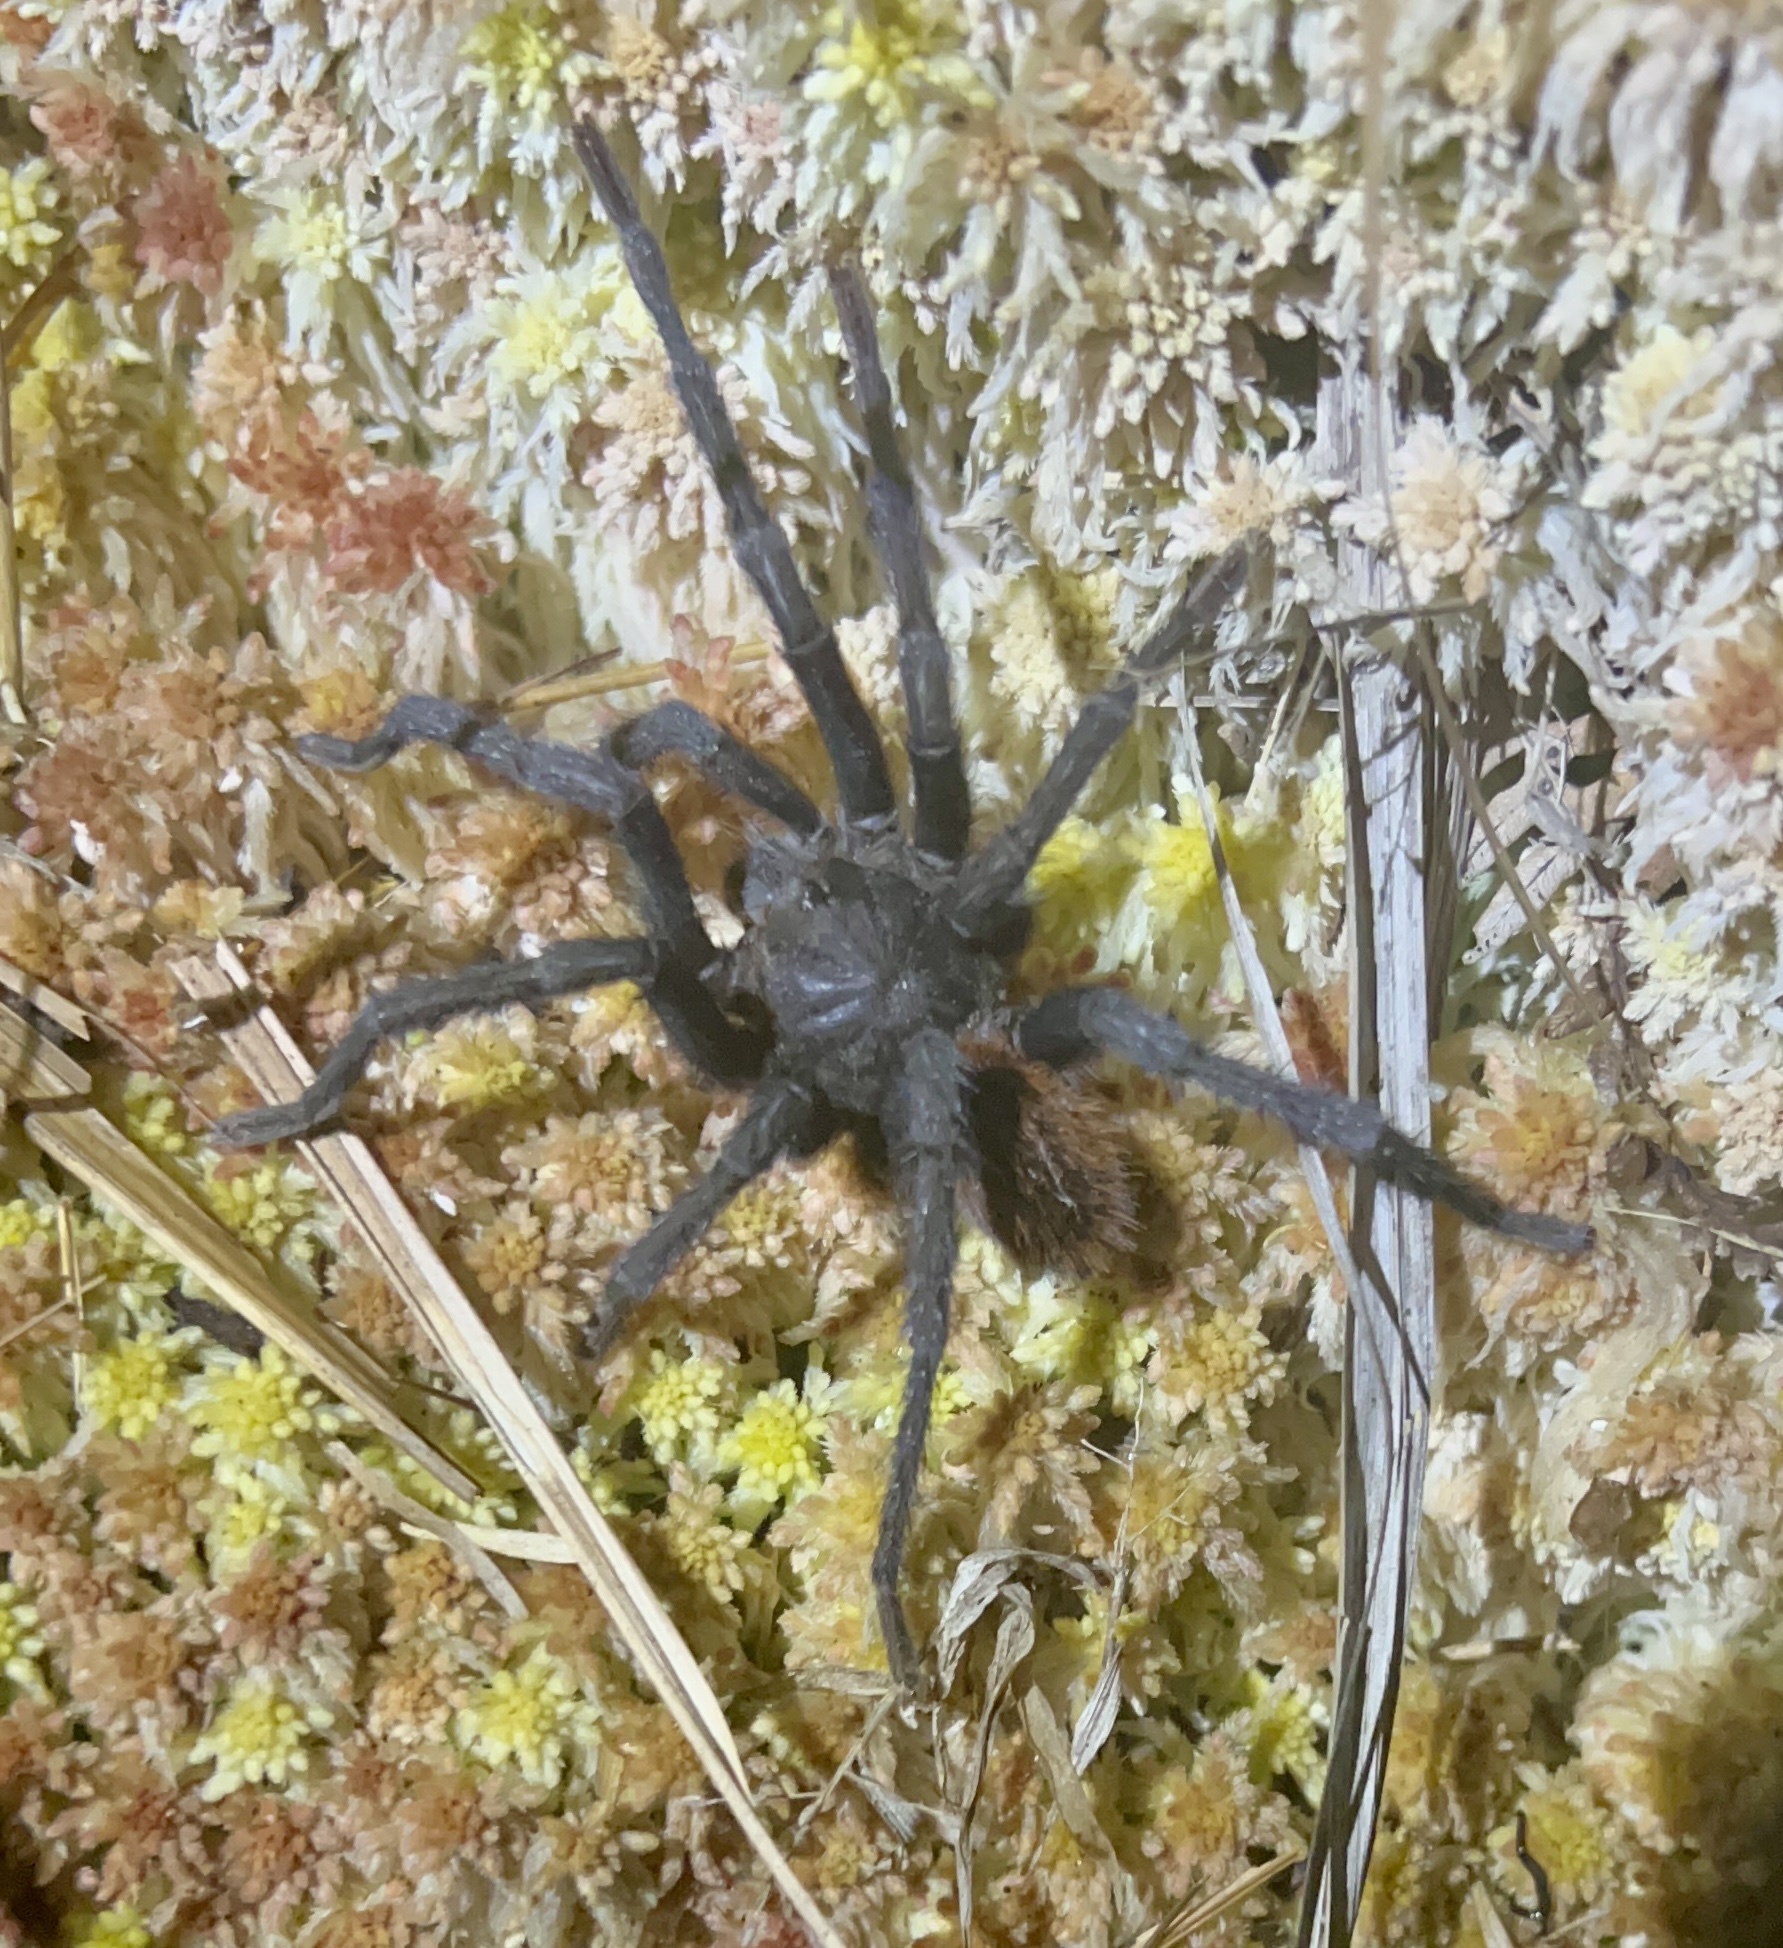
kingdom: Animalia
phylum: Arthropoda
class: Arachnida
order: Araneae
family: Theraphosidae
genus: Kankuamo
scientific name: Kankuamo marquezi
